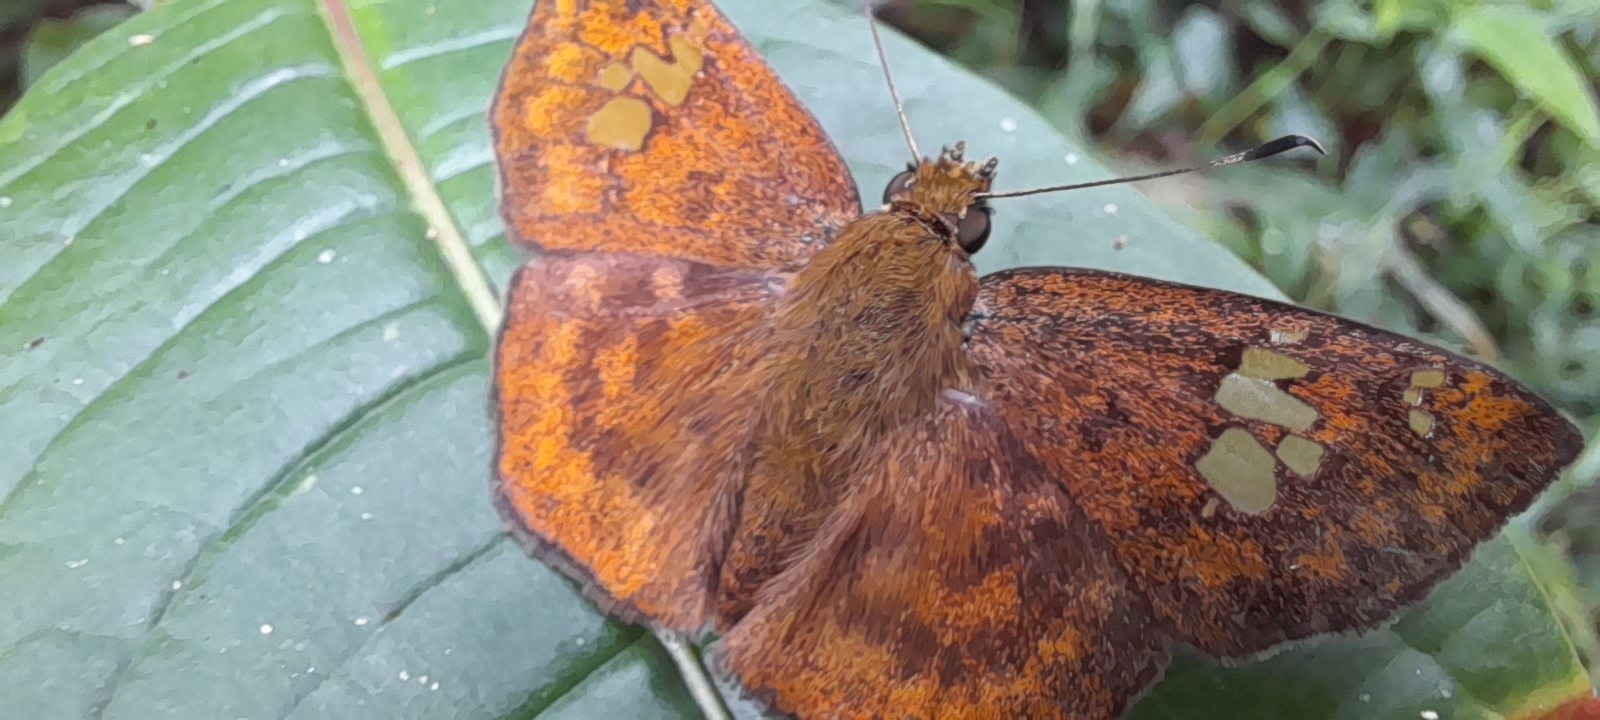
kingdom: Animalia
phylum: Arthropoda
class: Insecta
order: Lepidoptera
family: Hesperiidae
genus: Pseudocoladenia
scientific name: Pseudocoladenia dan
